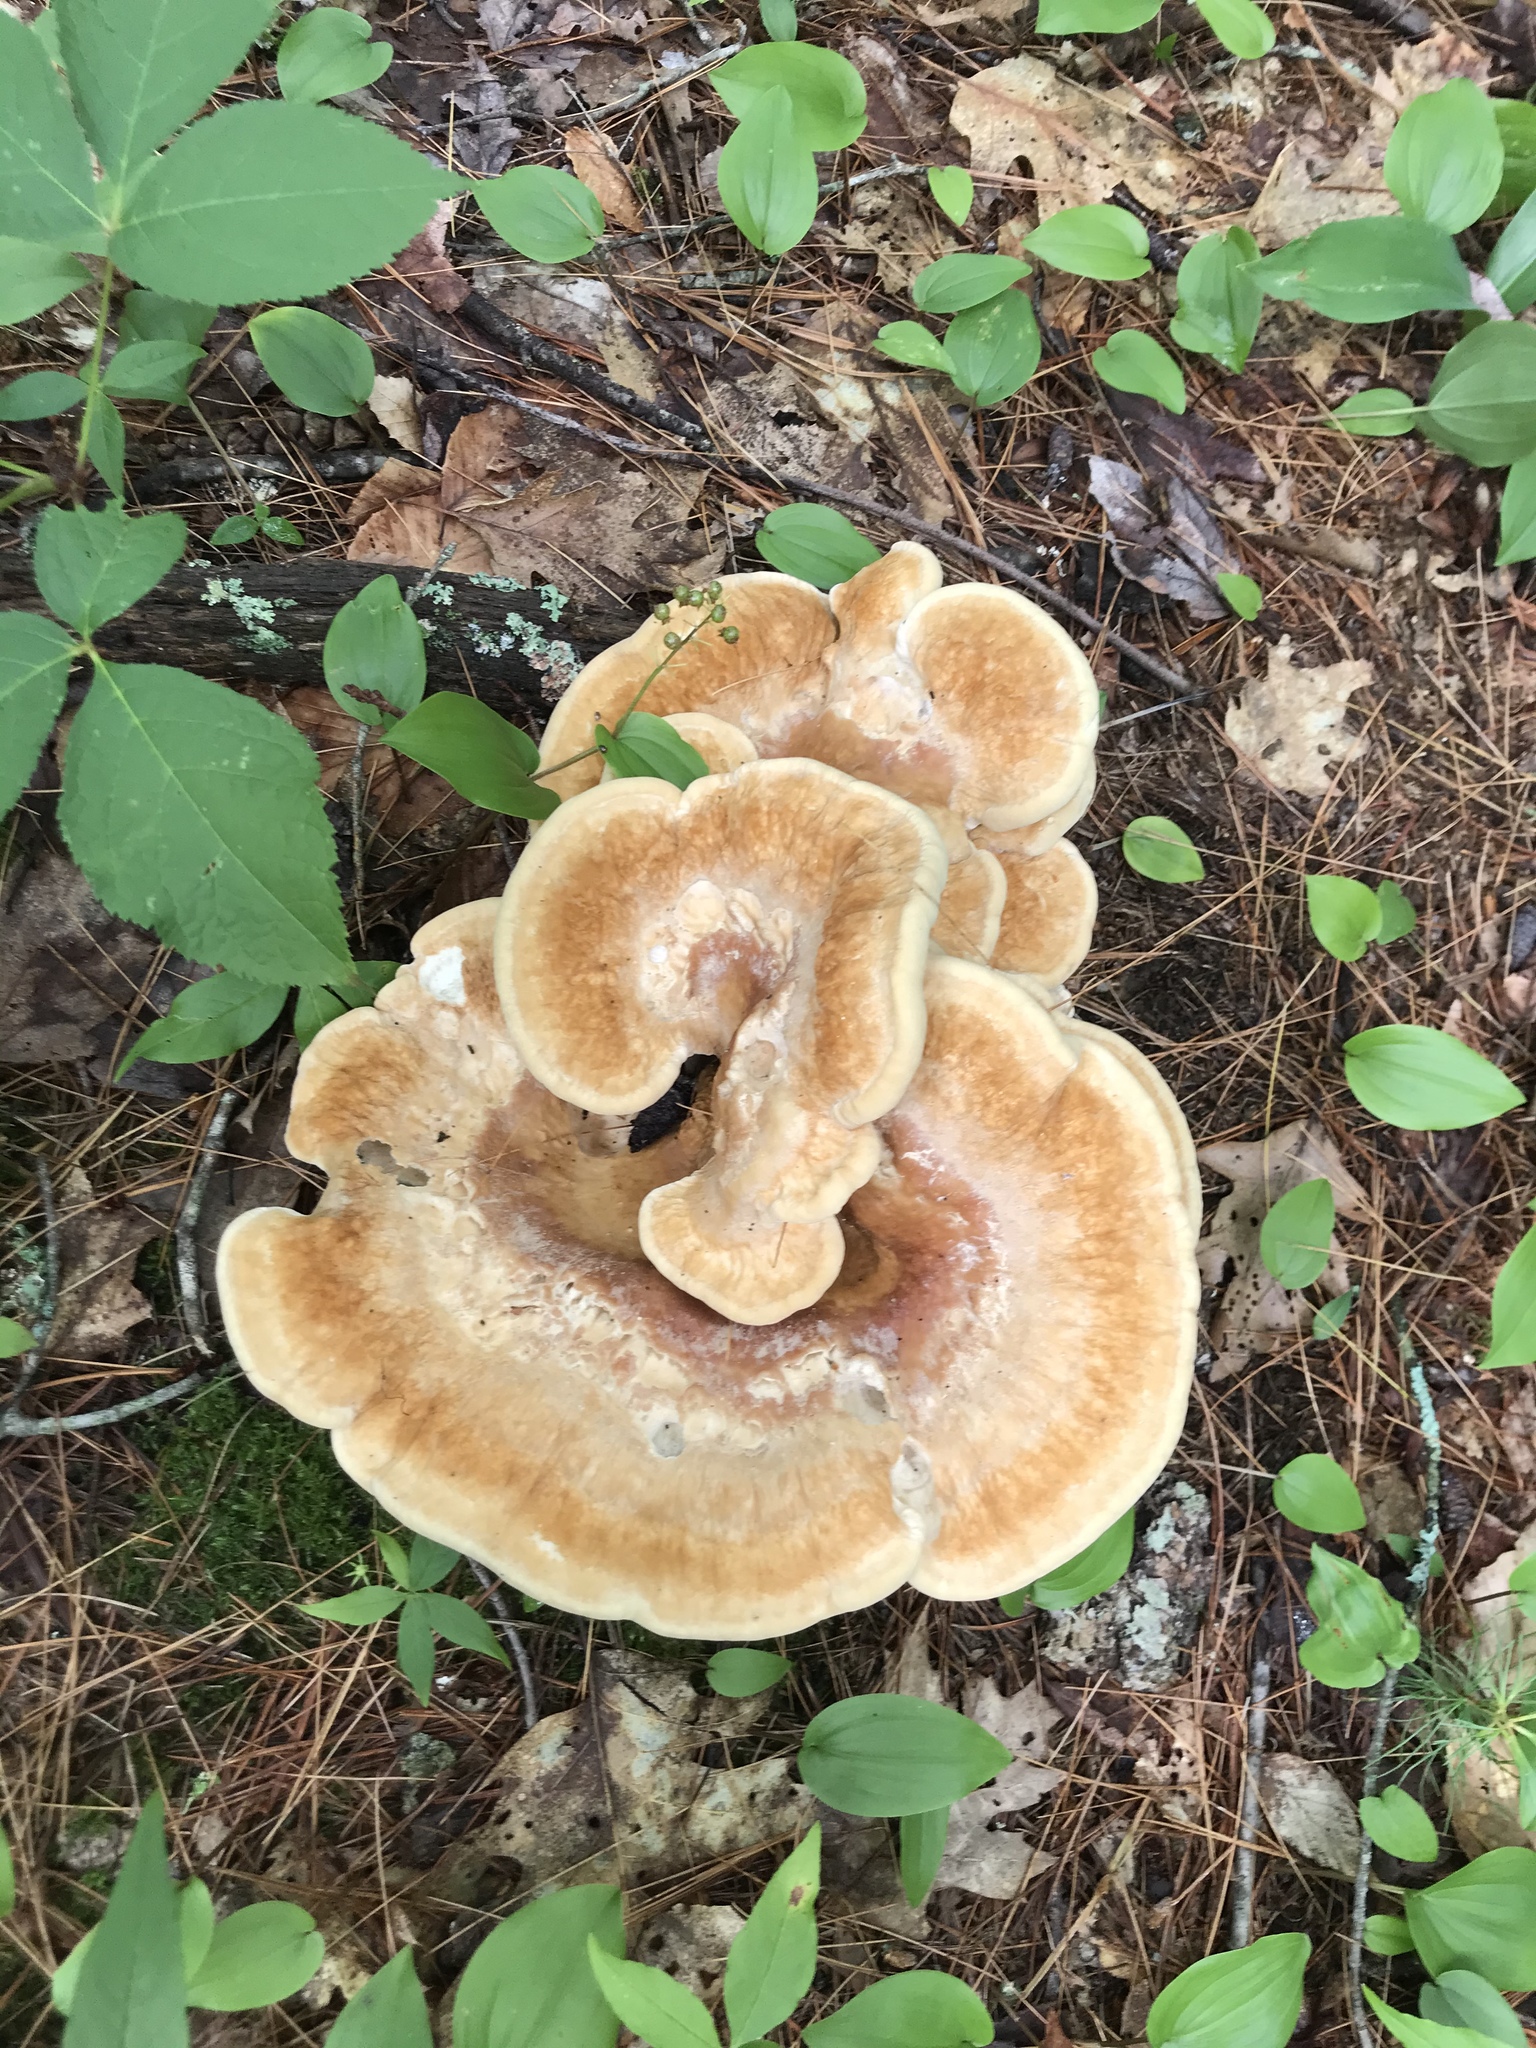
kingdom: Fungi
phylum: Basidiomycota
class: Agaricomycetes
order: Russulales
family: Bondarzewiaceae
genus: Bondarzewia
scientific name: Bondarzewia berkeleyi
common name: Berkeley's polypore
